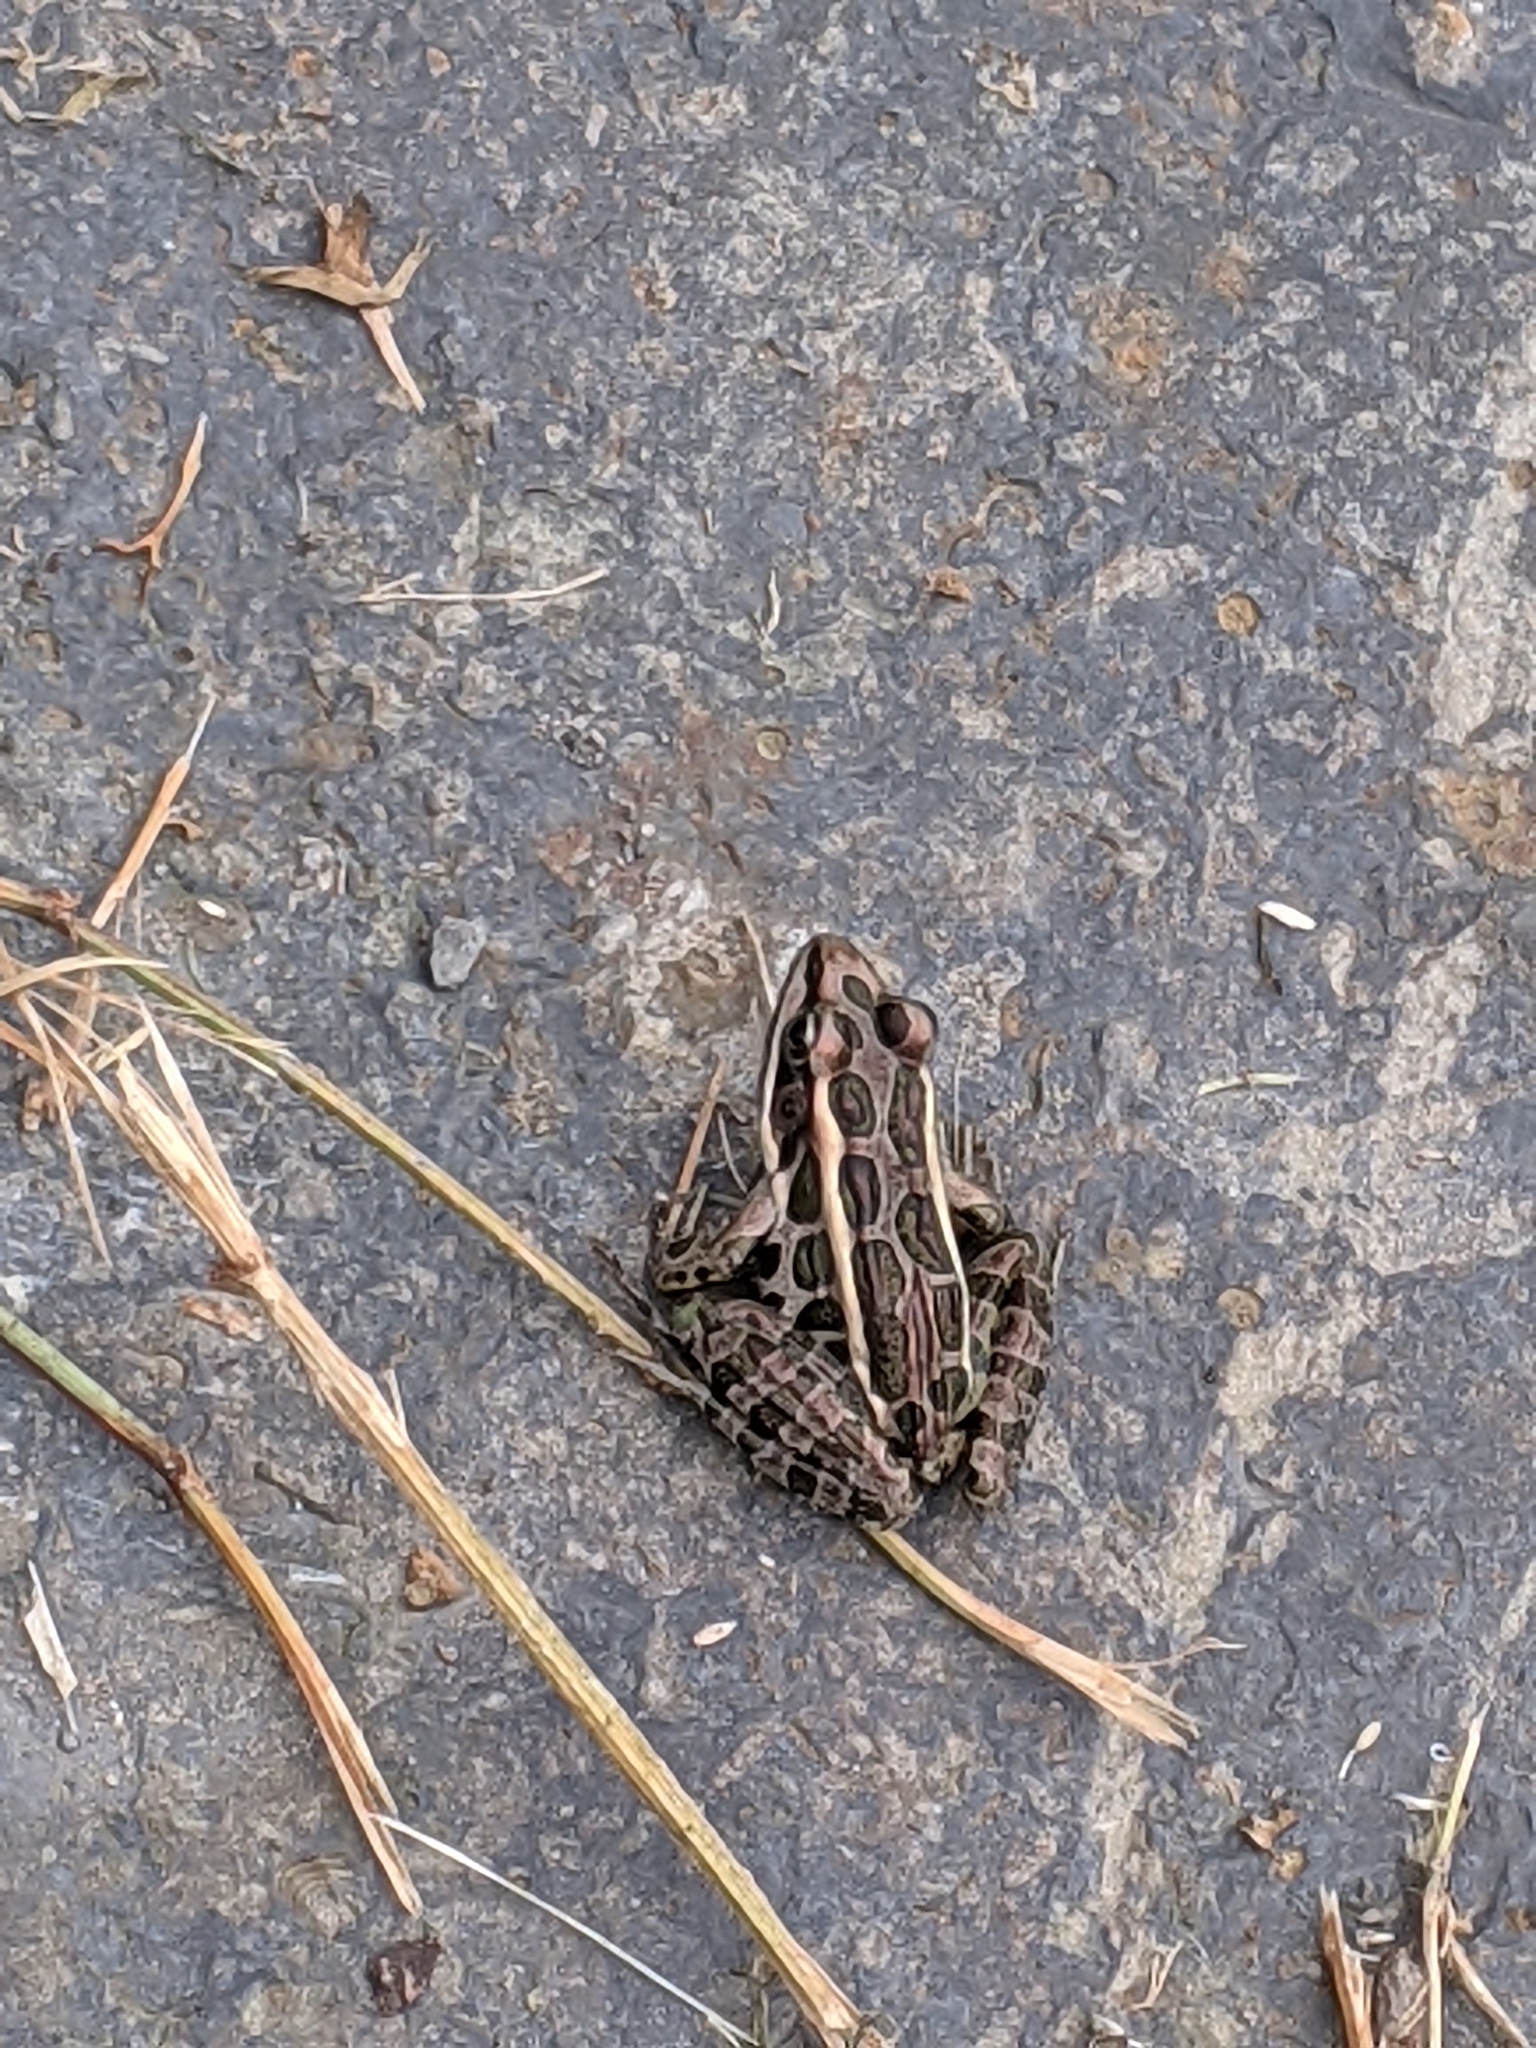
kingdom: Animalia
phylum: Chordata
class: Amphibia
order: Anura
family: Ranidae
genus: Lithobates
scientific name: Lithobates palustris
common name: Pickerel frog
